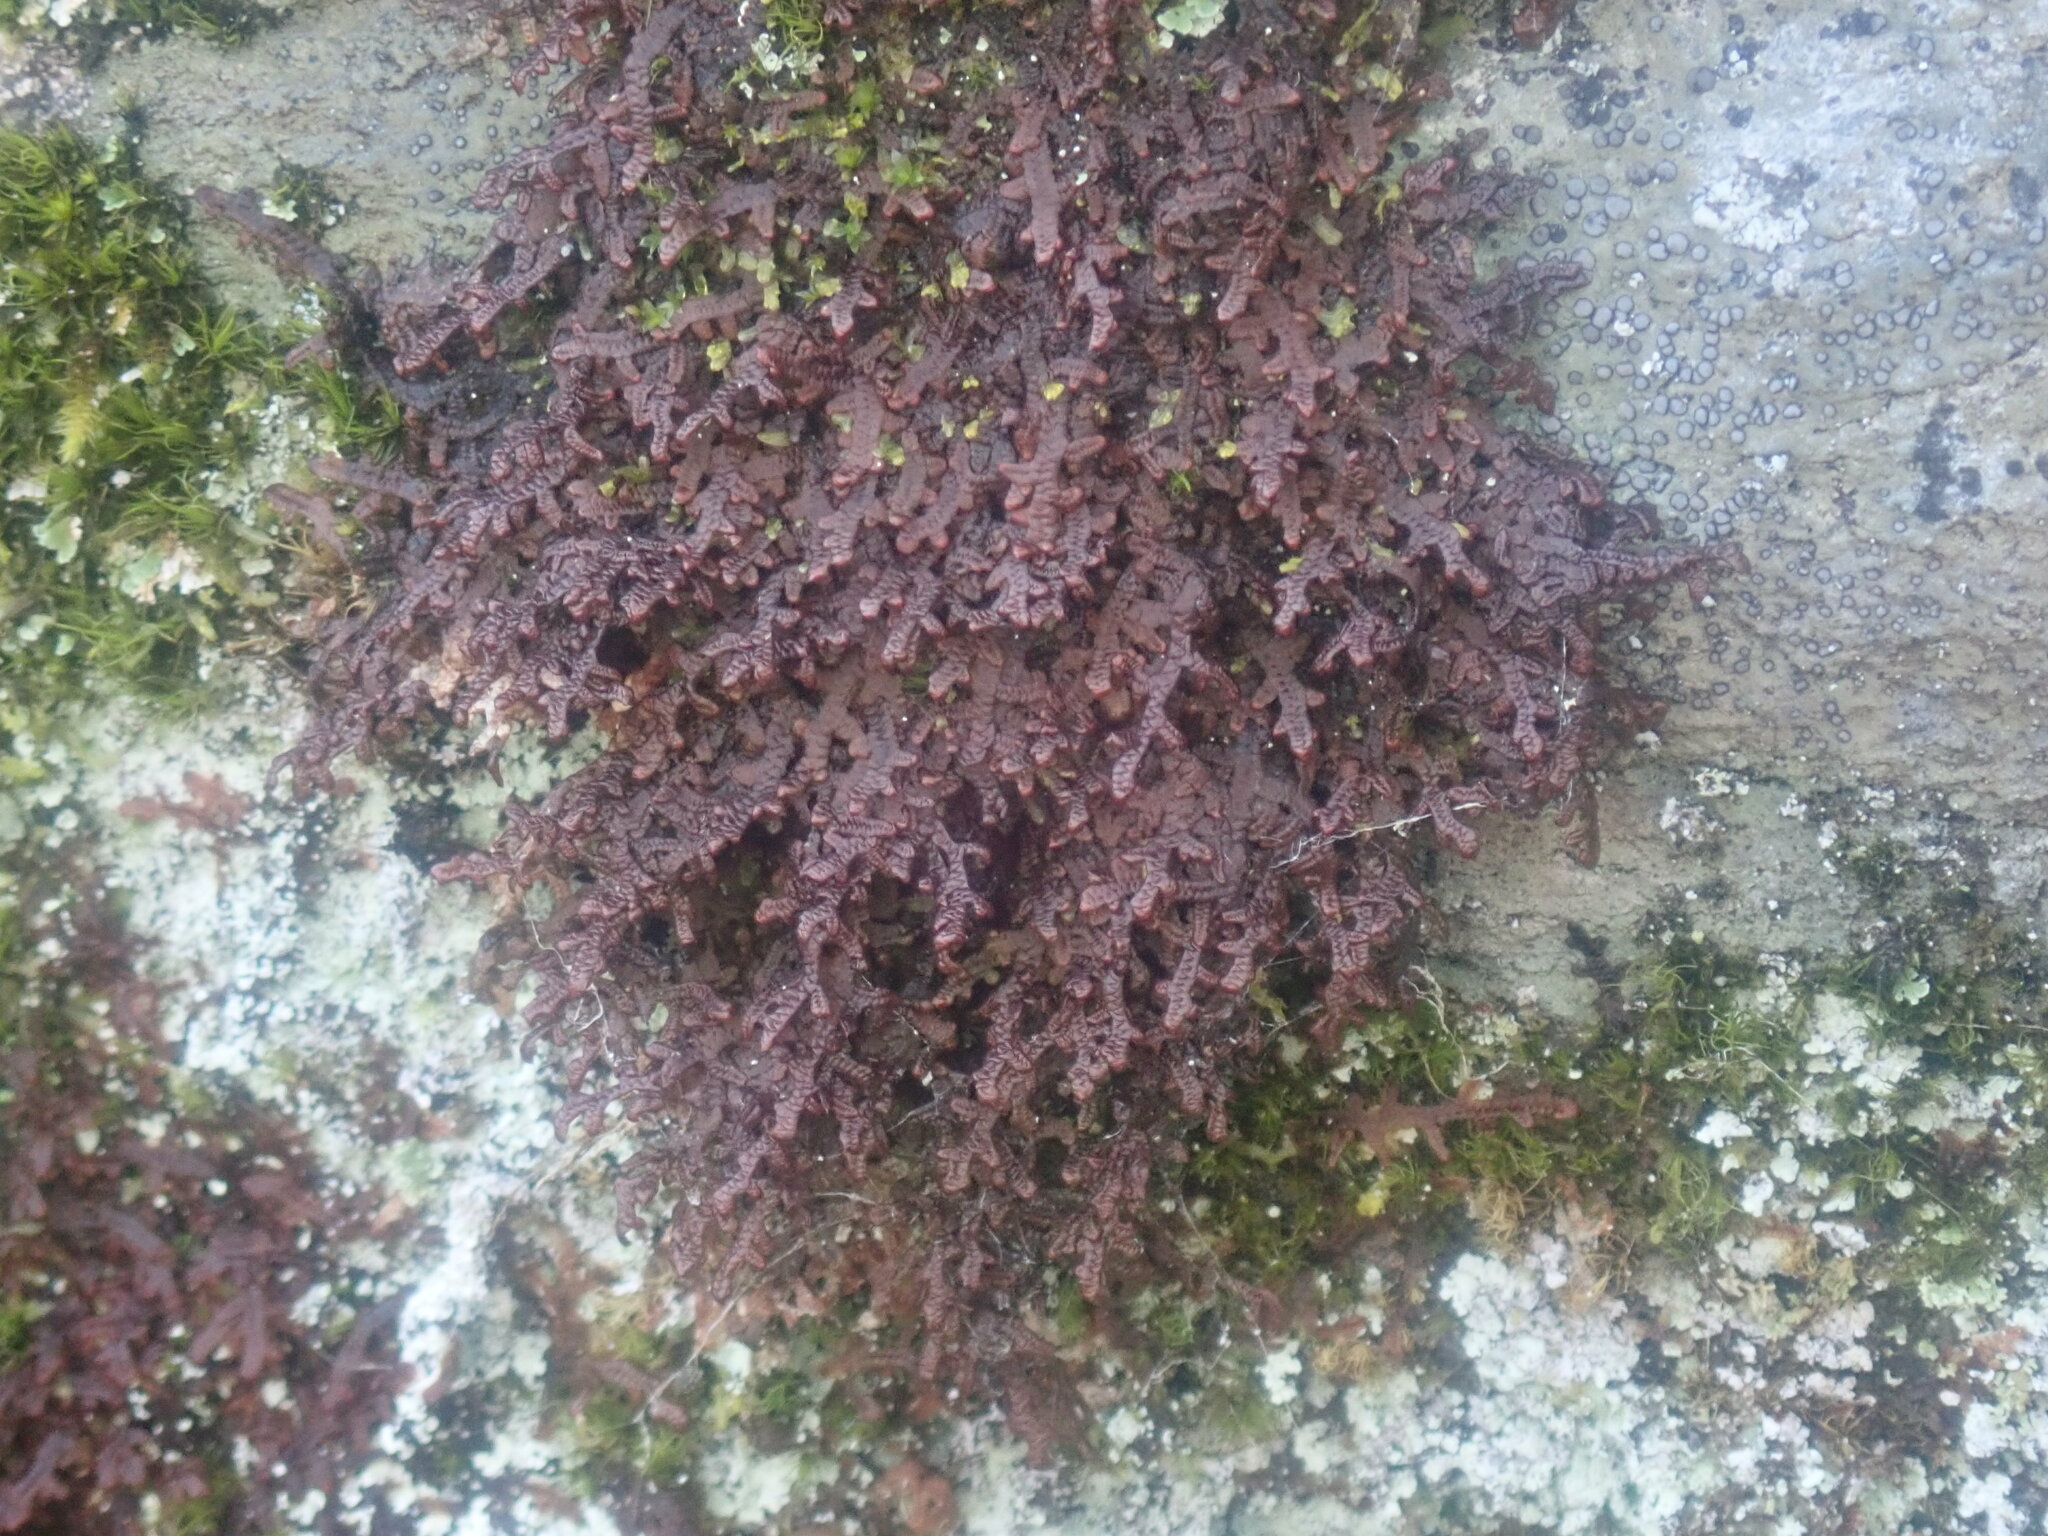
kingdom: Plantae
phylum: Marchantiophyta
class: Jungermanniopsida
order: Porellales
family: Frullaniaceae
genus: Frullania
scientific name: Frullania asagrayana
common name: Asa gray s scalewort
